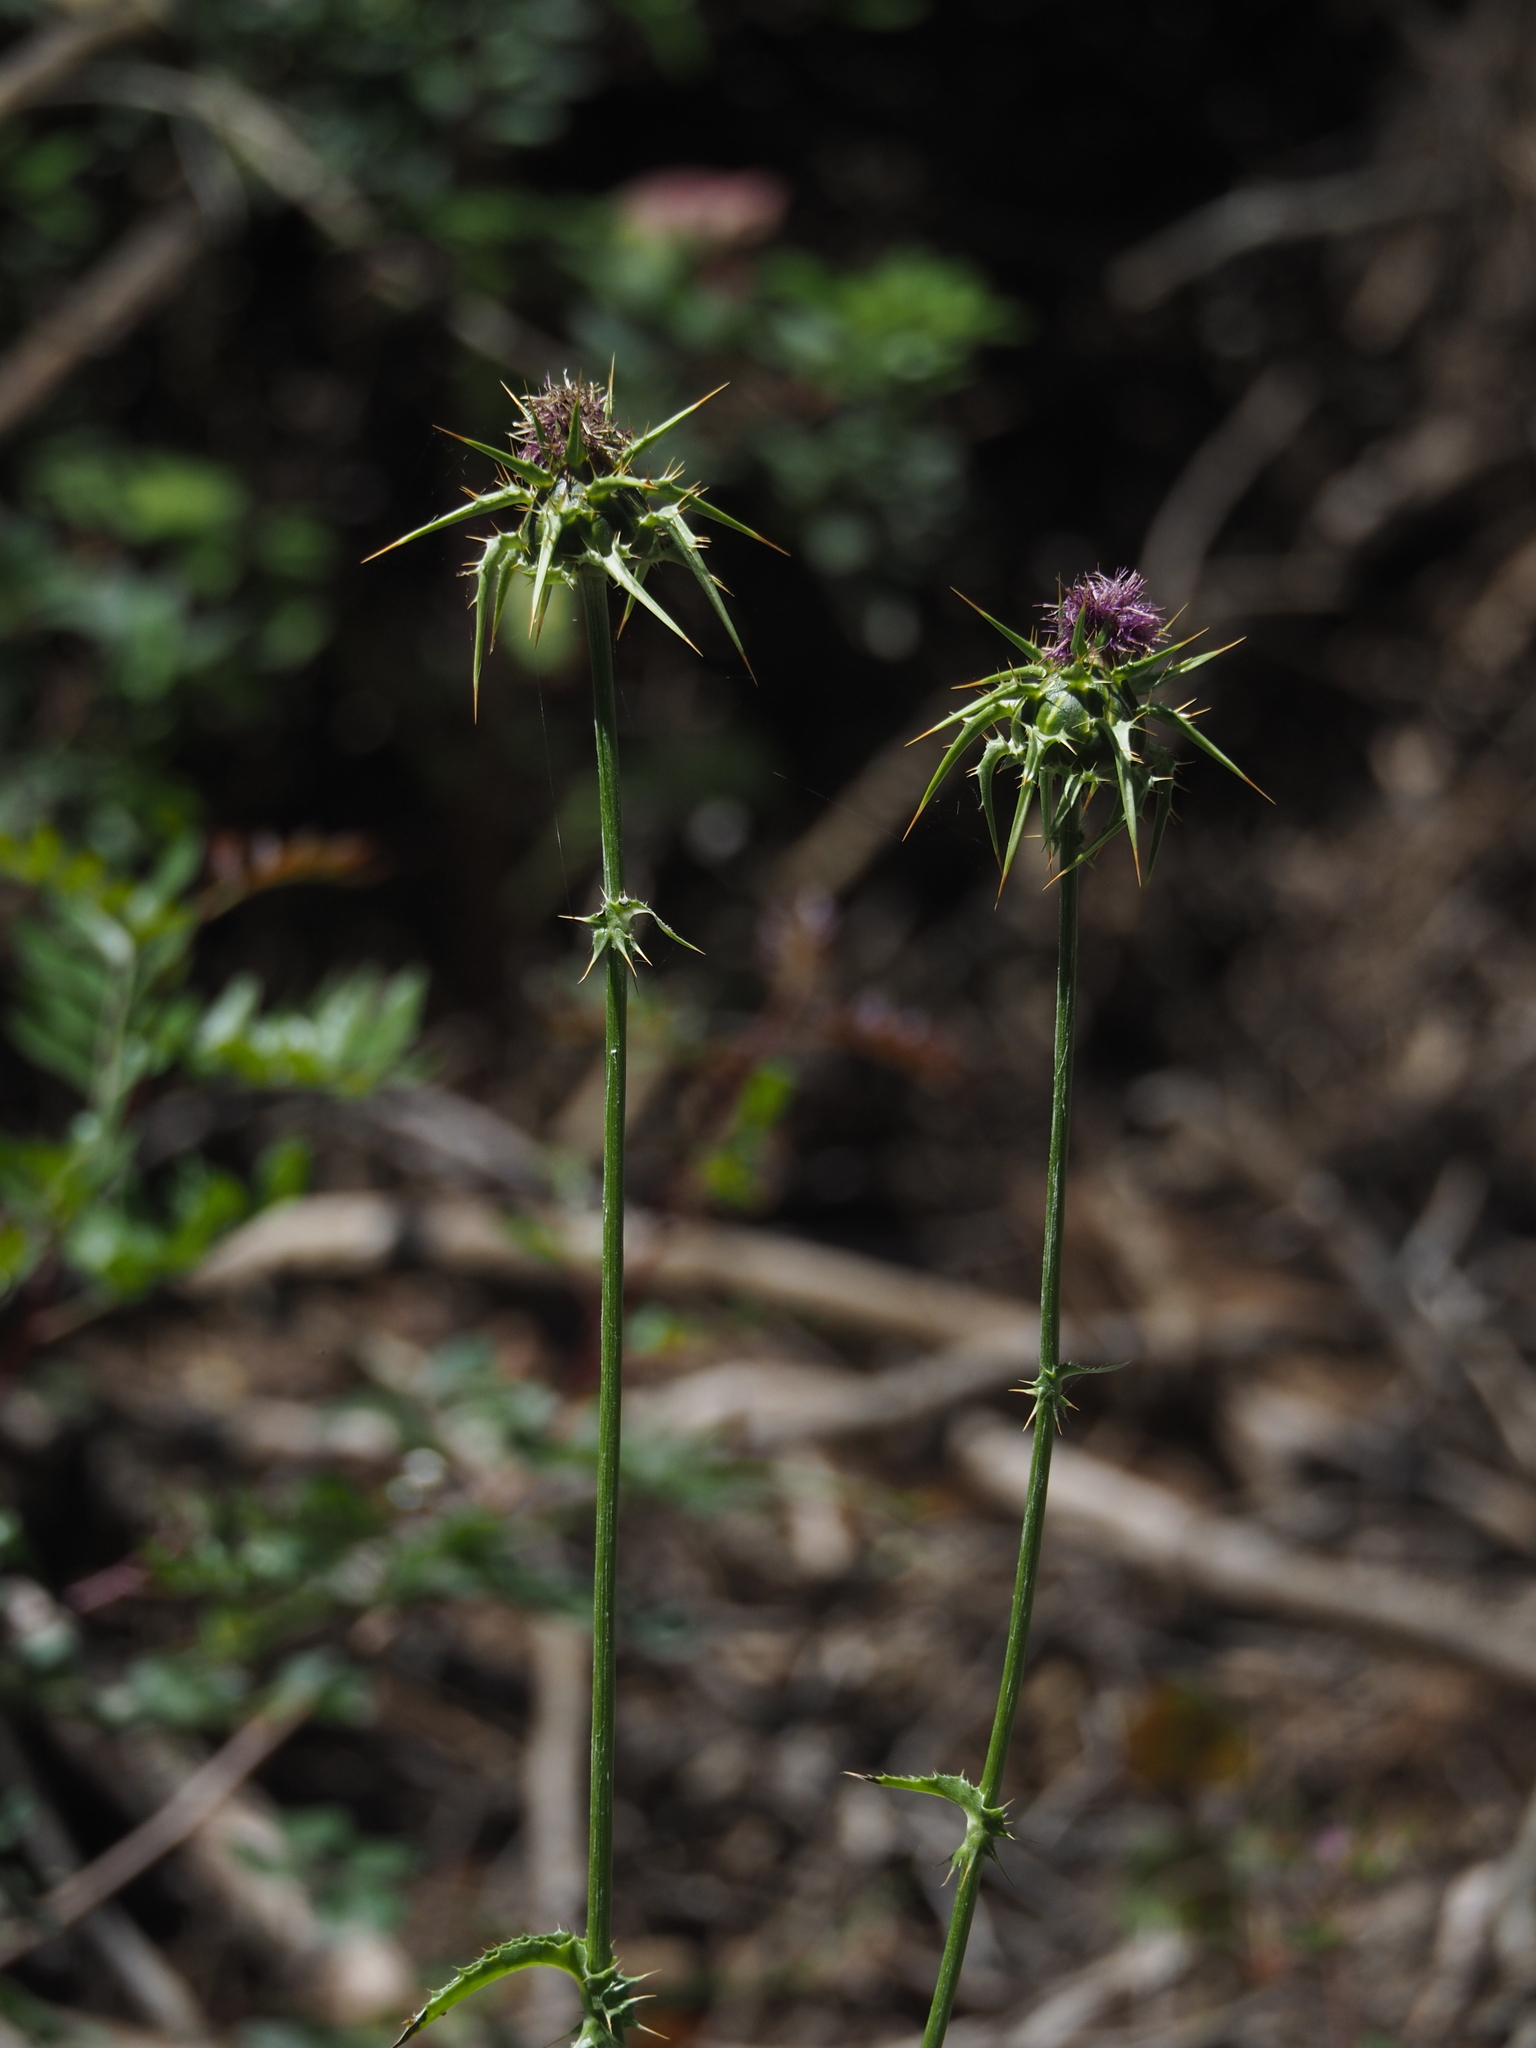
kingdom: Plantae
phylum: Tracheophyta
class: Magnoliopsida
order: Asterales
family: Asteraceae
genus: Silybum
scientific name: Silybum marianum
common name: Milk thistle
